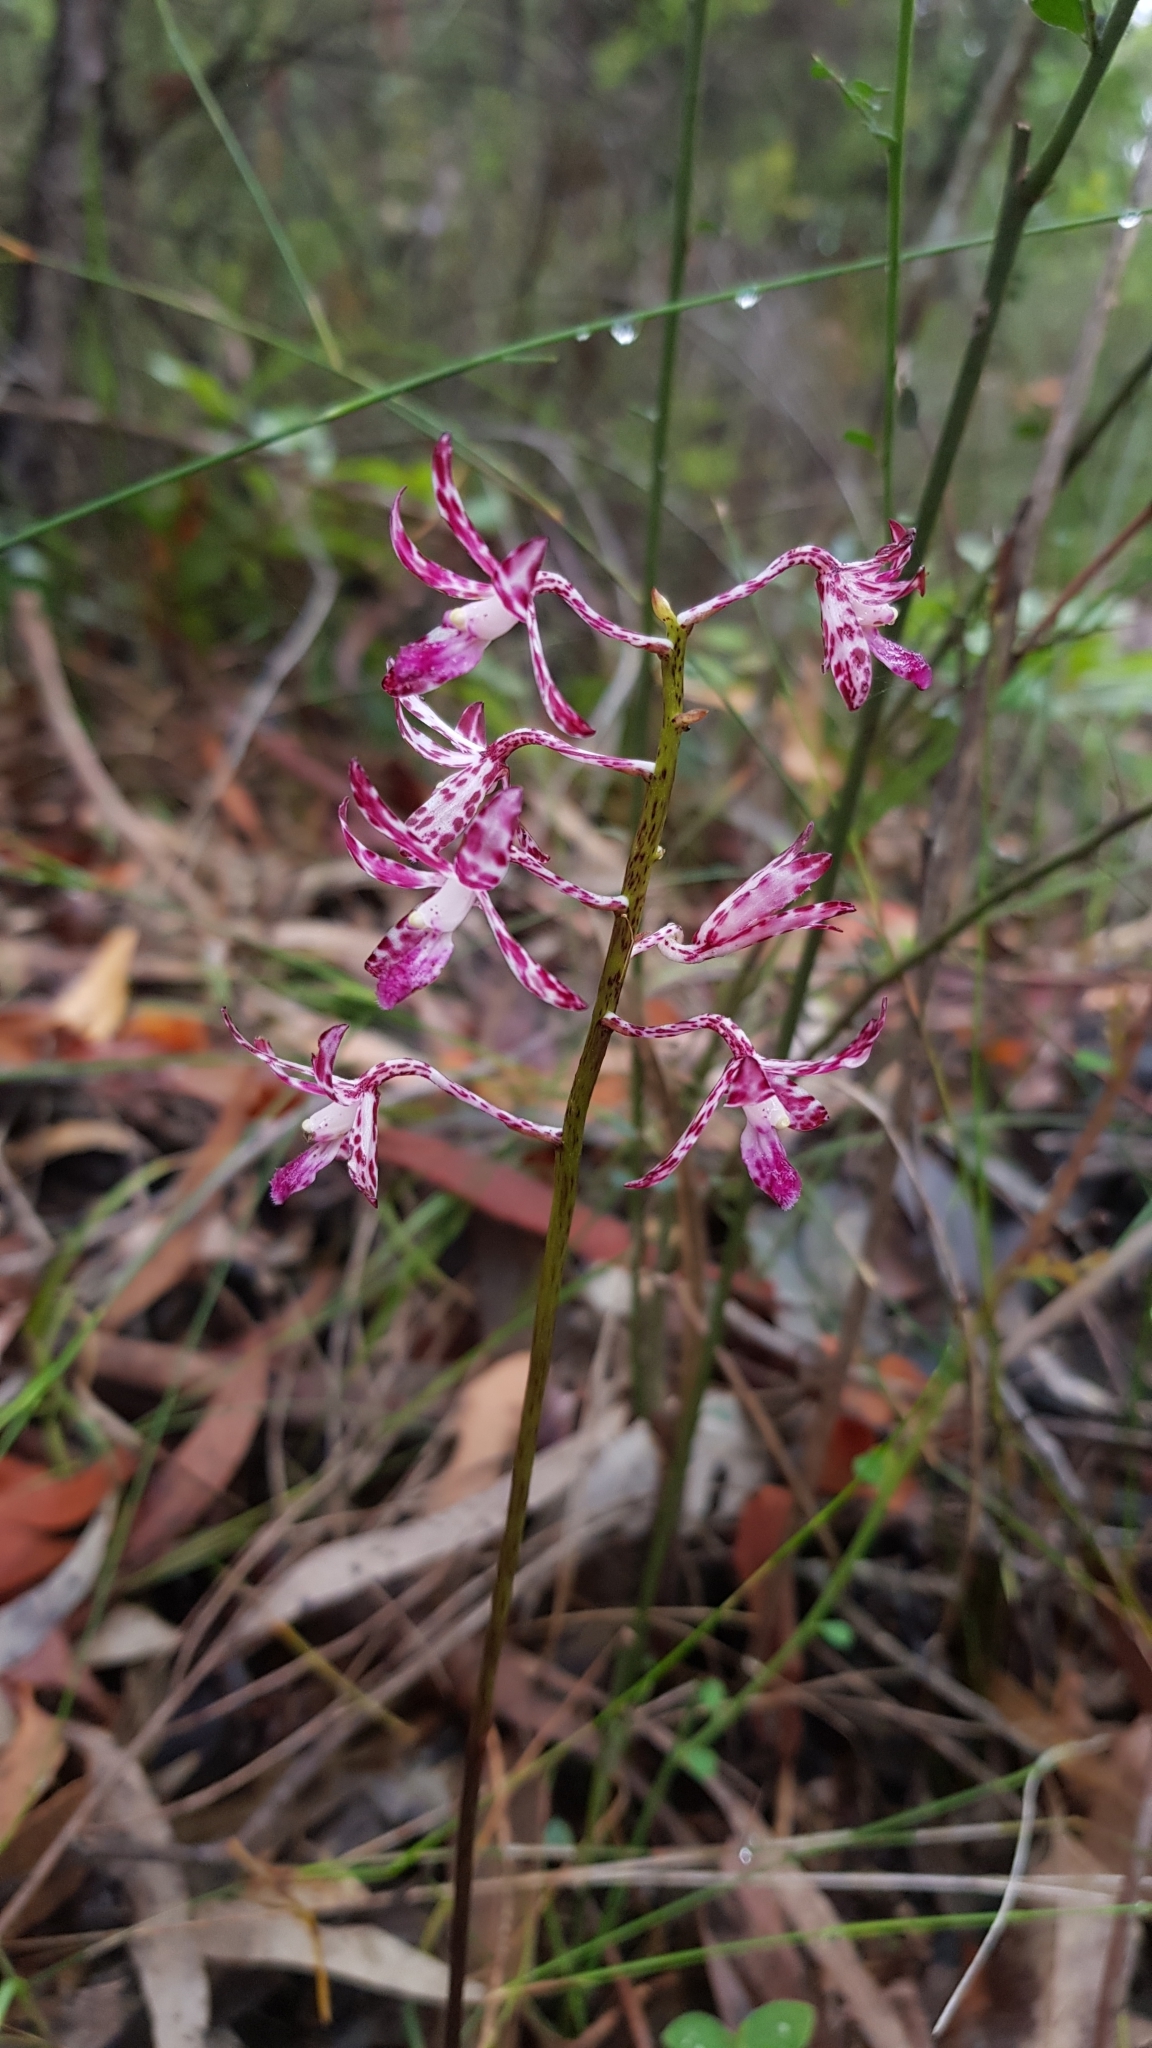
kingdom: Plantae
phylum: Tracheophyta
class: Liliopsida
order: Asparagales
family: Orchidaceae
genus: Dipodium
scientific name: Dipodium variegatum
